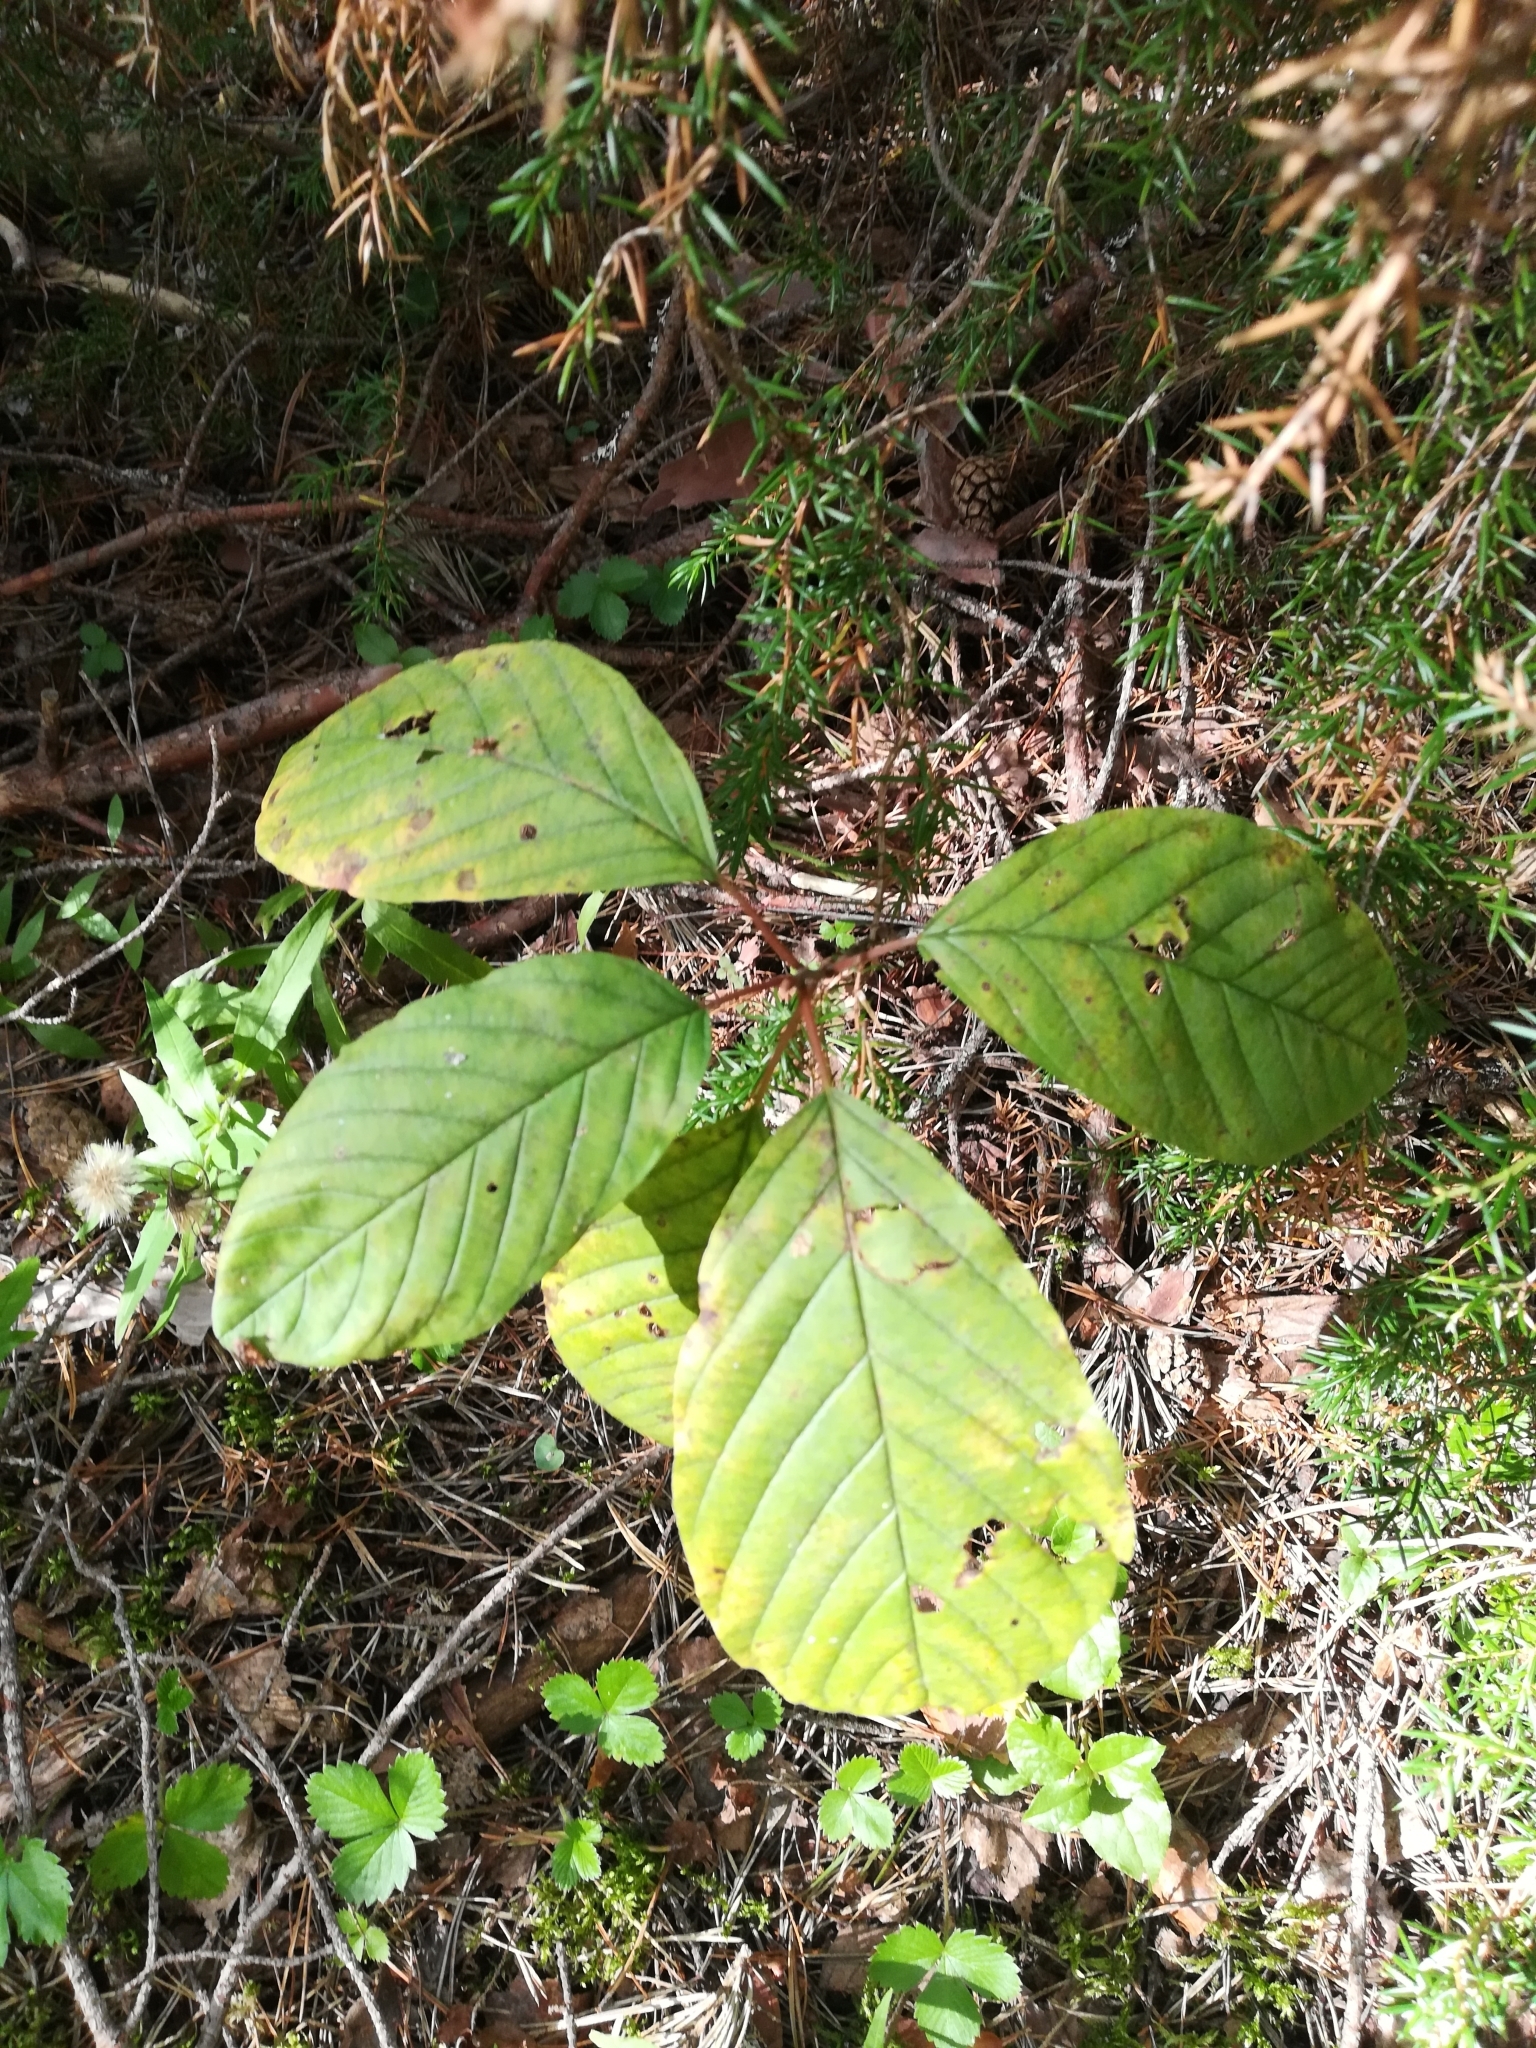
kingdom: Plantae
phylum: Tracheophyta
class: Magnoliopsida
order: Rosales
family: Rhamnaceae
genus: Frangula
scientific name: Frangula alnus
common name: Alder buckthorn
